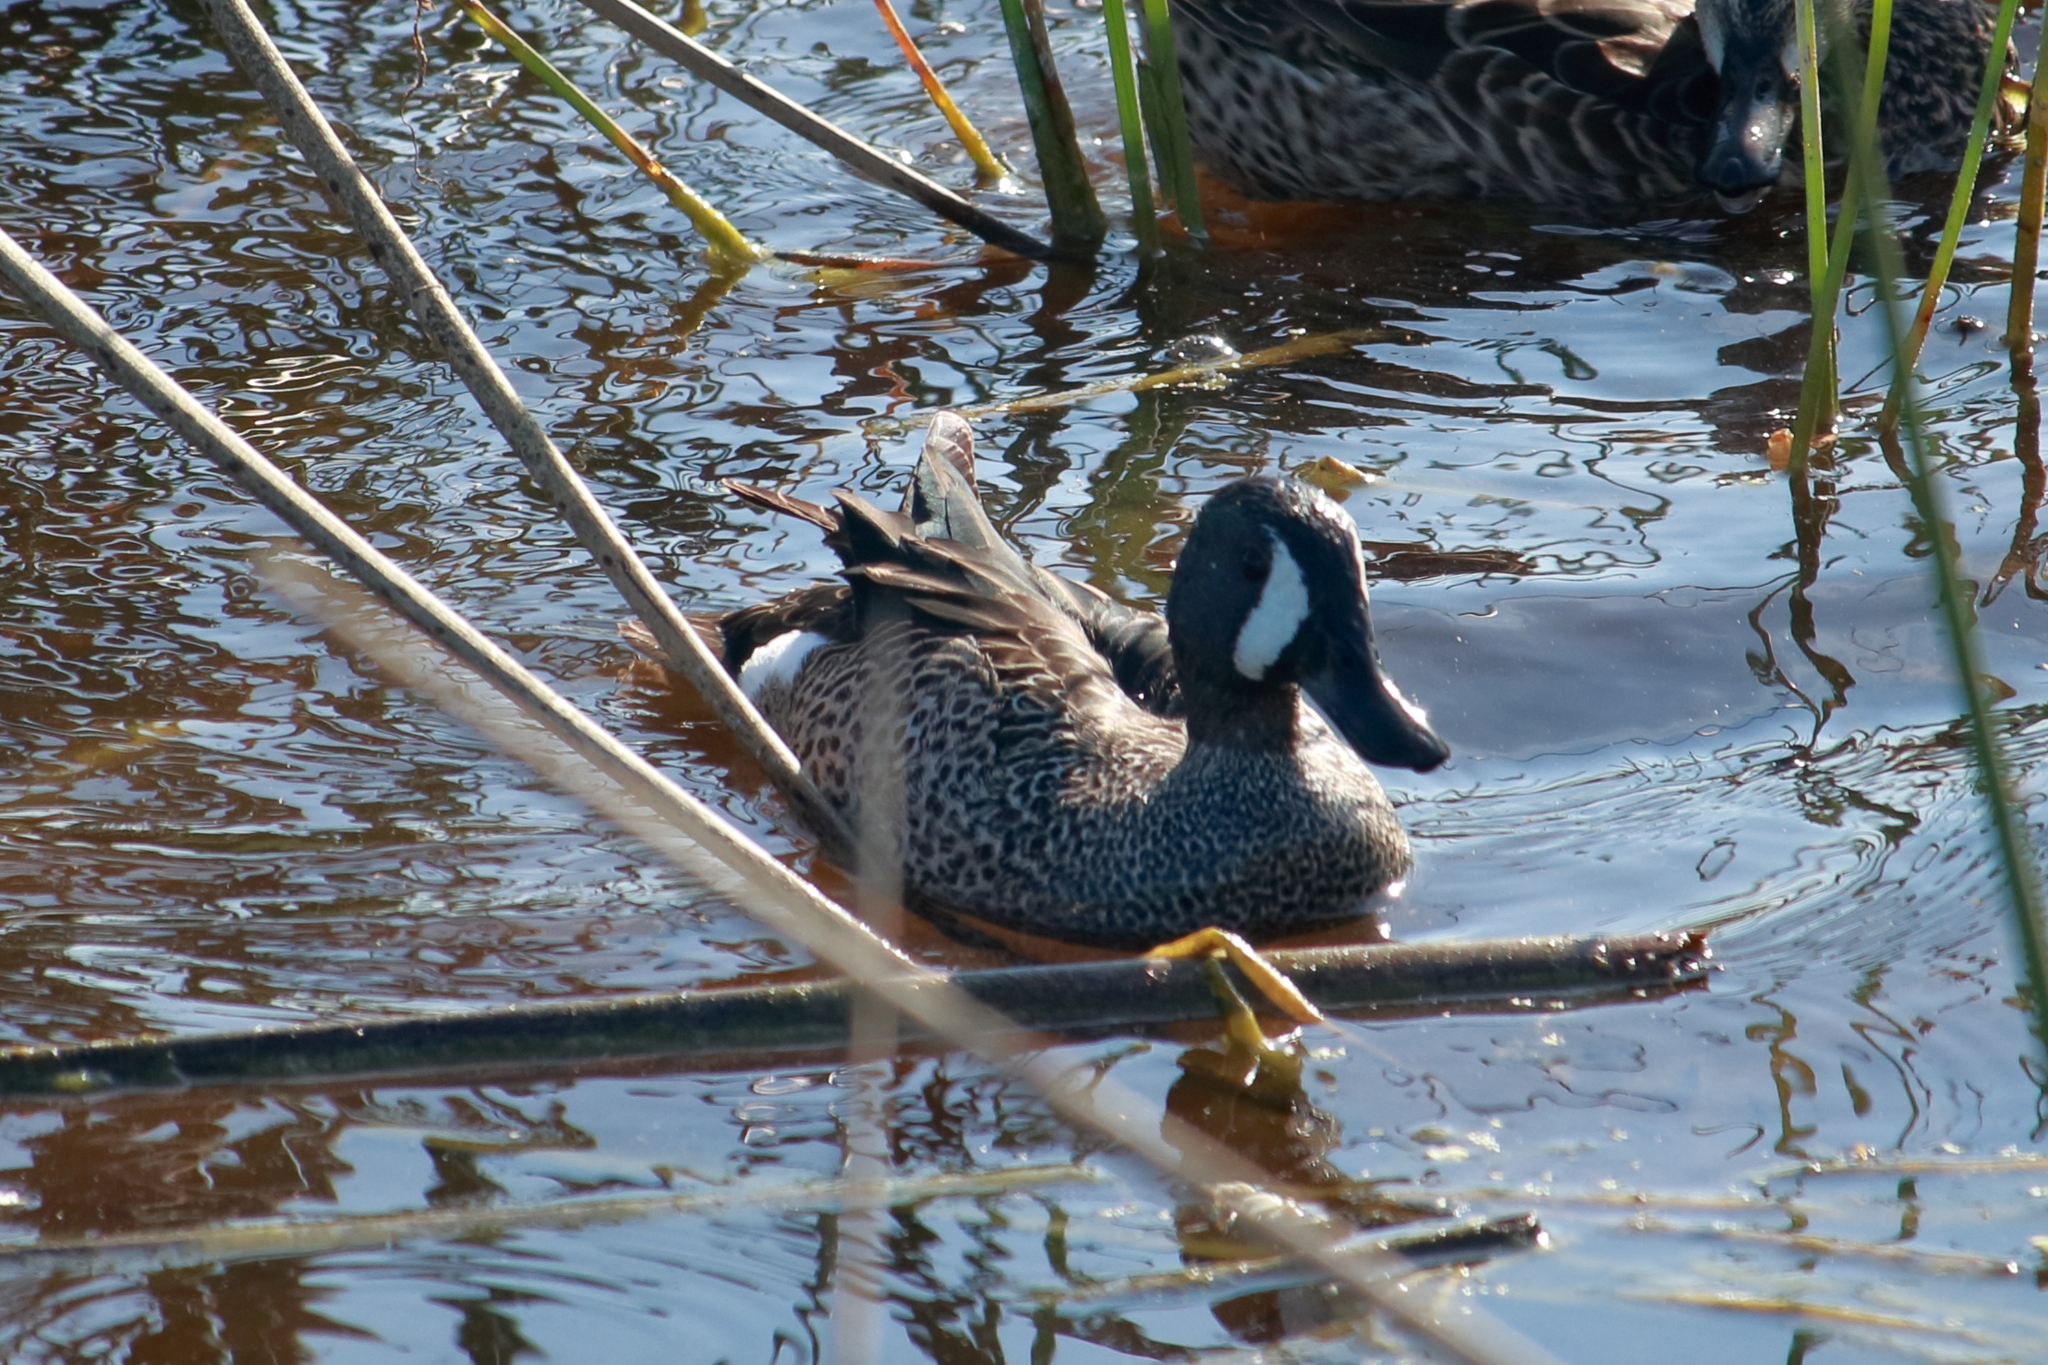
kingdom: Animalia
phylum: Chordata
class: Aves
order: Anseriformes
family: Anatidae
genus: Spatula
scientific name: Spatula discors
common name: Blue-winged teal
